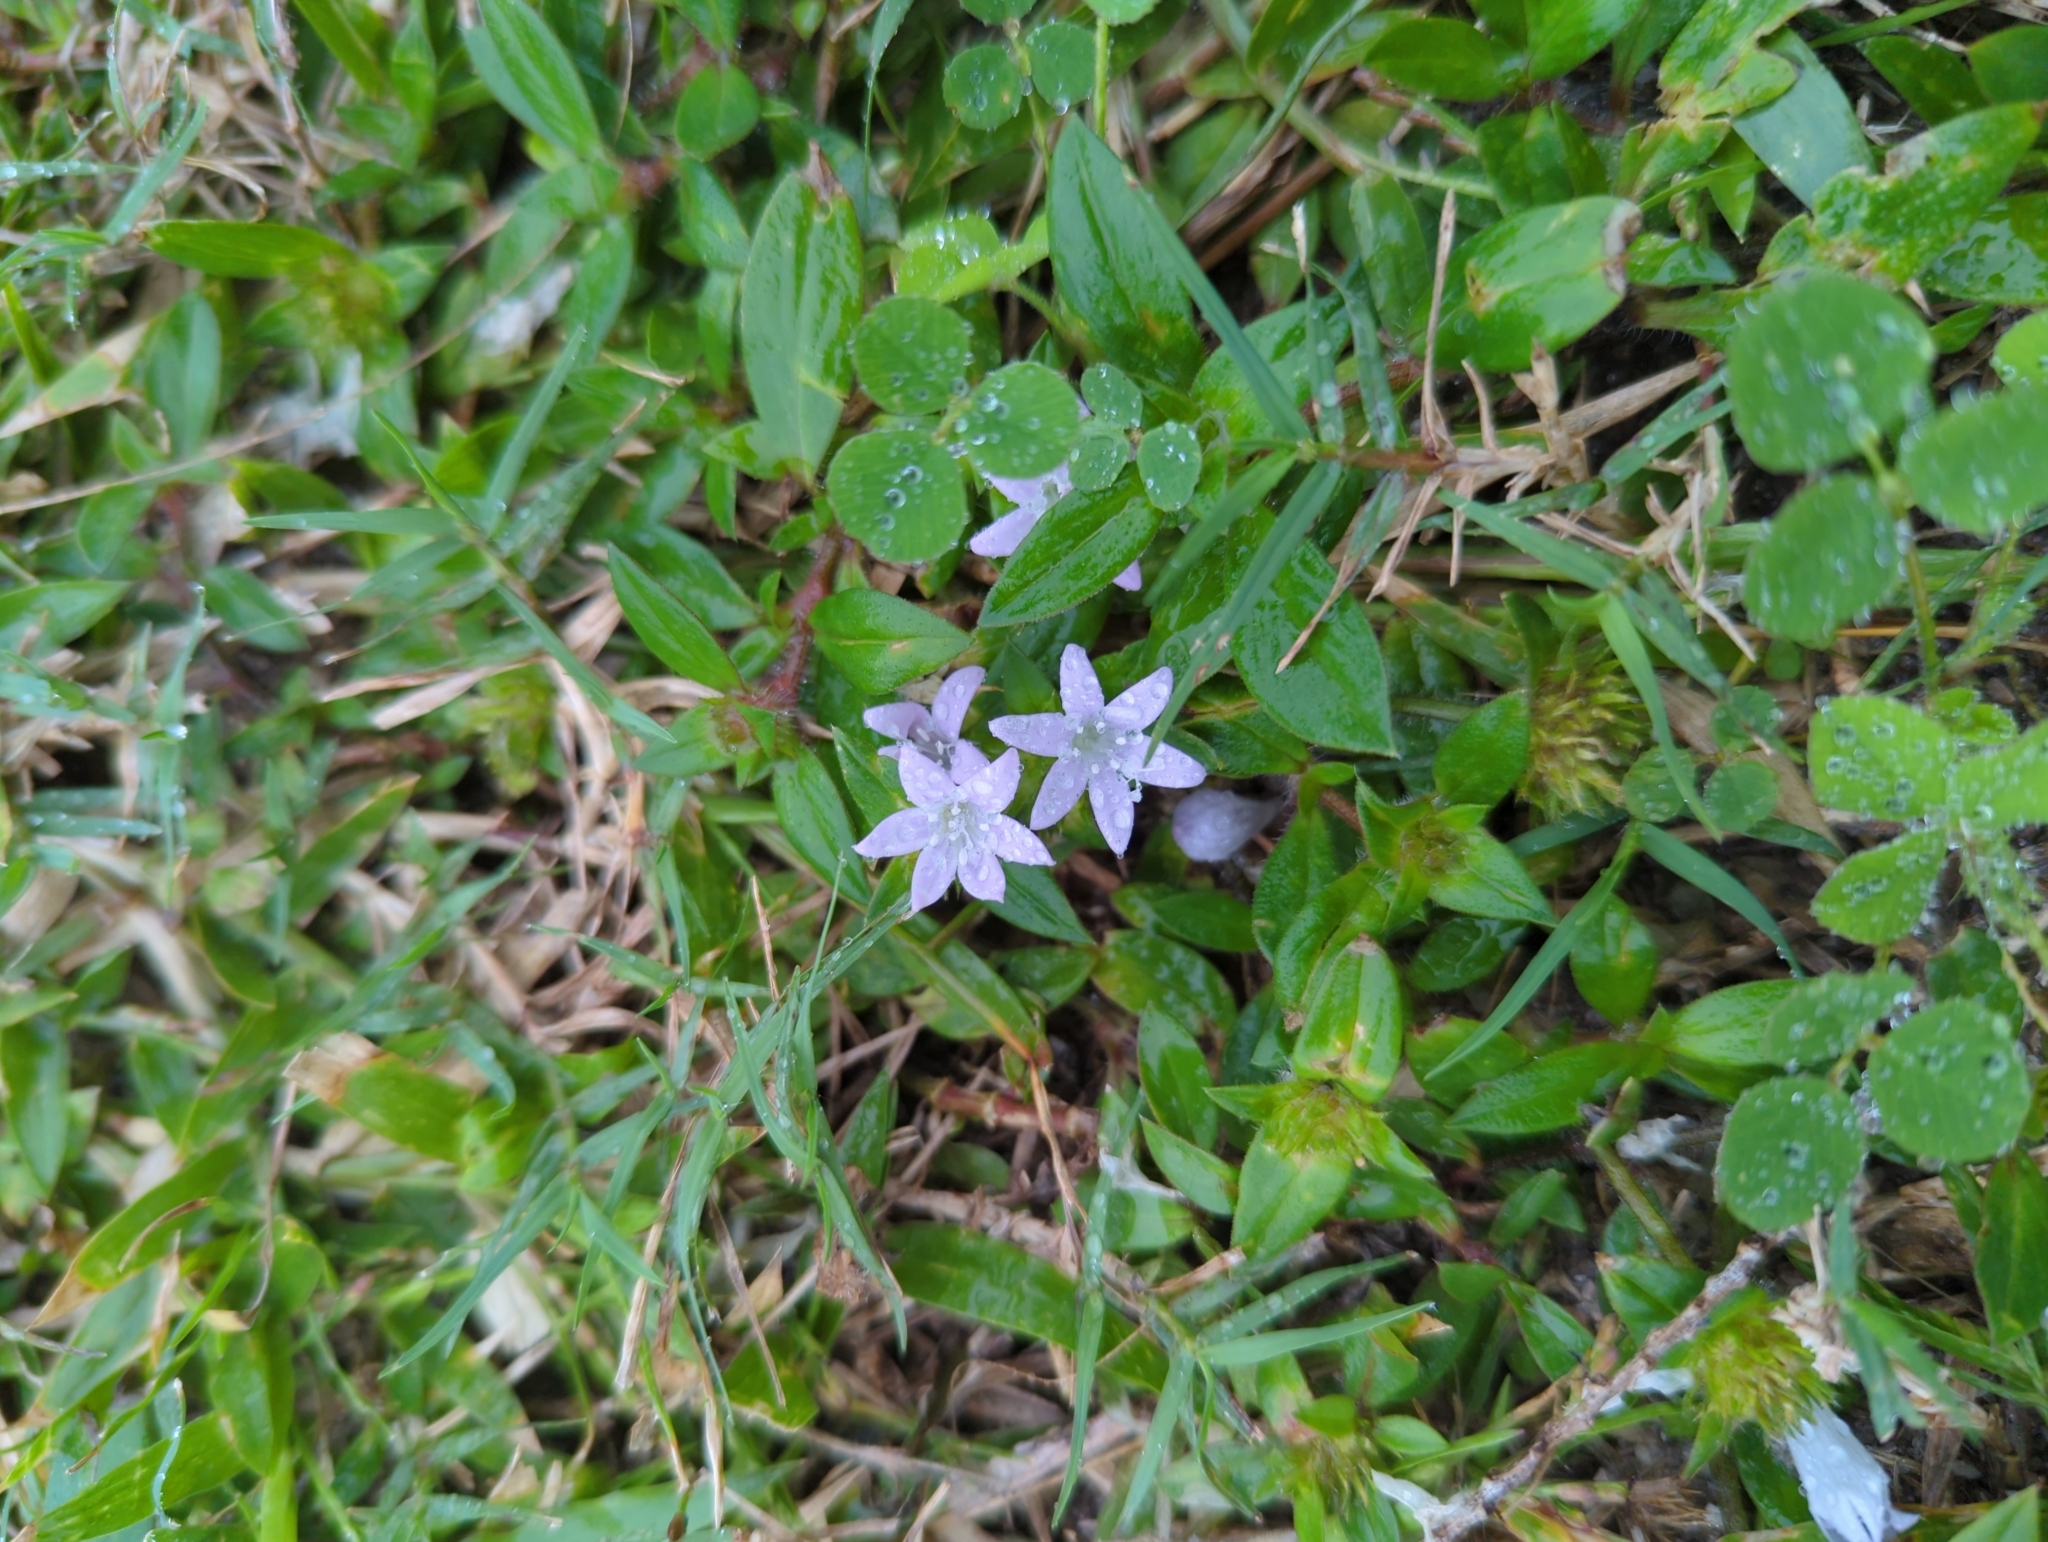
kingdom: Plantae
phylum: Tracheophyta
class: Magnoliopsida
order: Gentianales
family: Rubiaceae
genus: Richardia
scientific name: Richardia grandiflora
